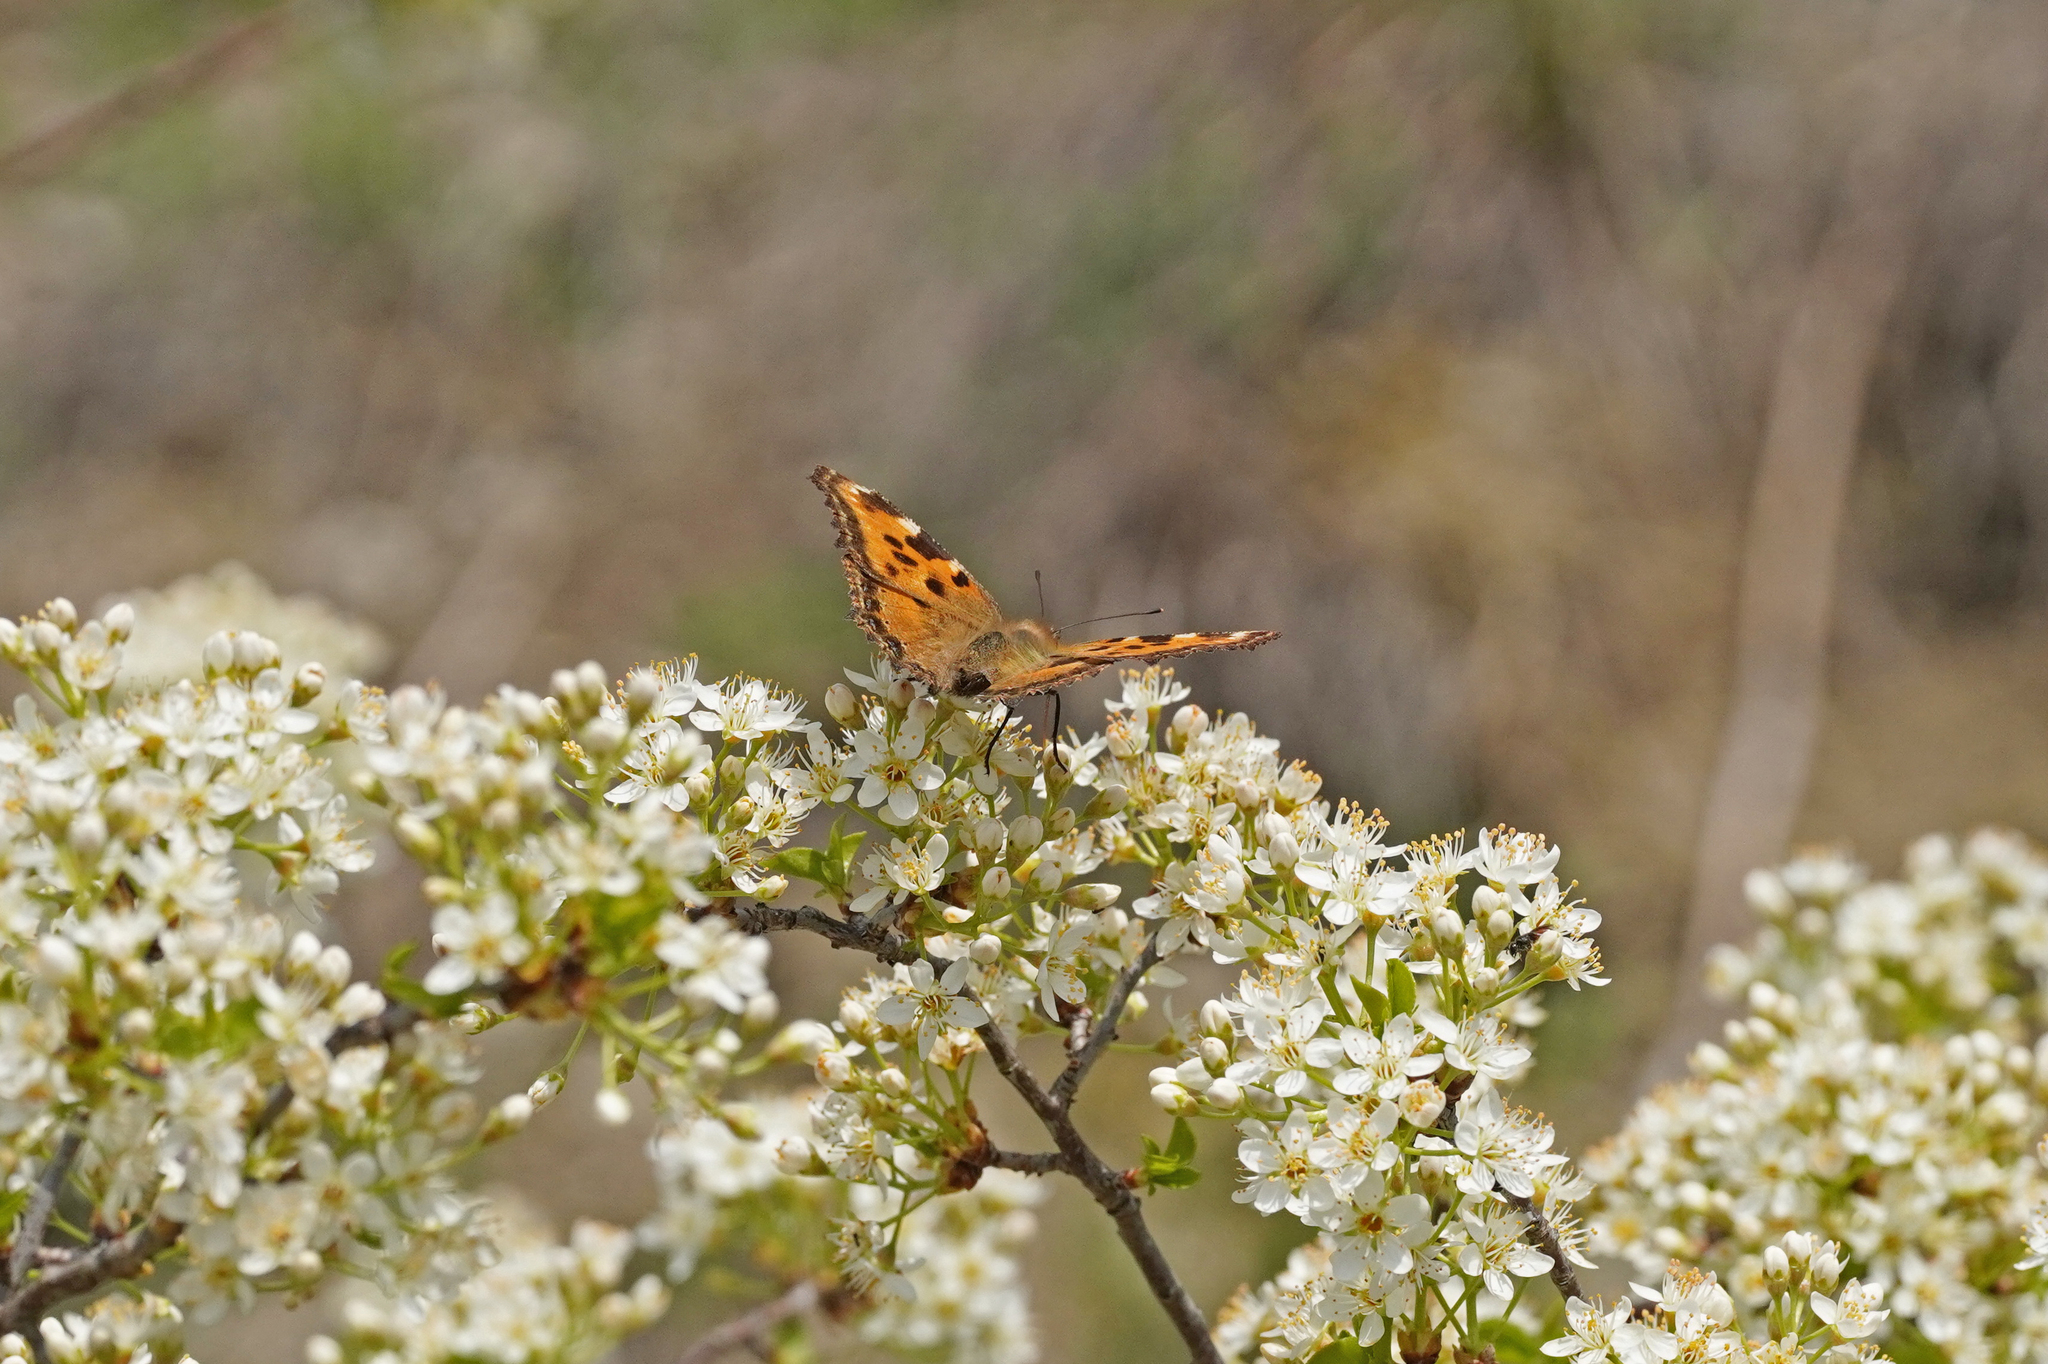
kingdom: Animalia
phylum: Arthropoda
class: Insecta
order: Lepidoptera
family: Nymphalidae
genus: Nymphalis
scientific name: Nymphalis polychloros
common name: Large tortoiseshell
